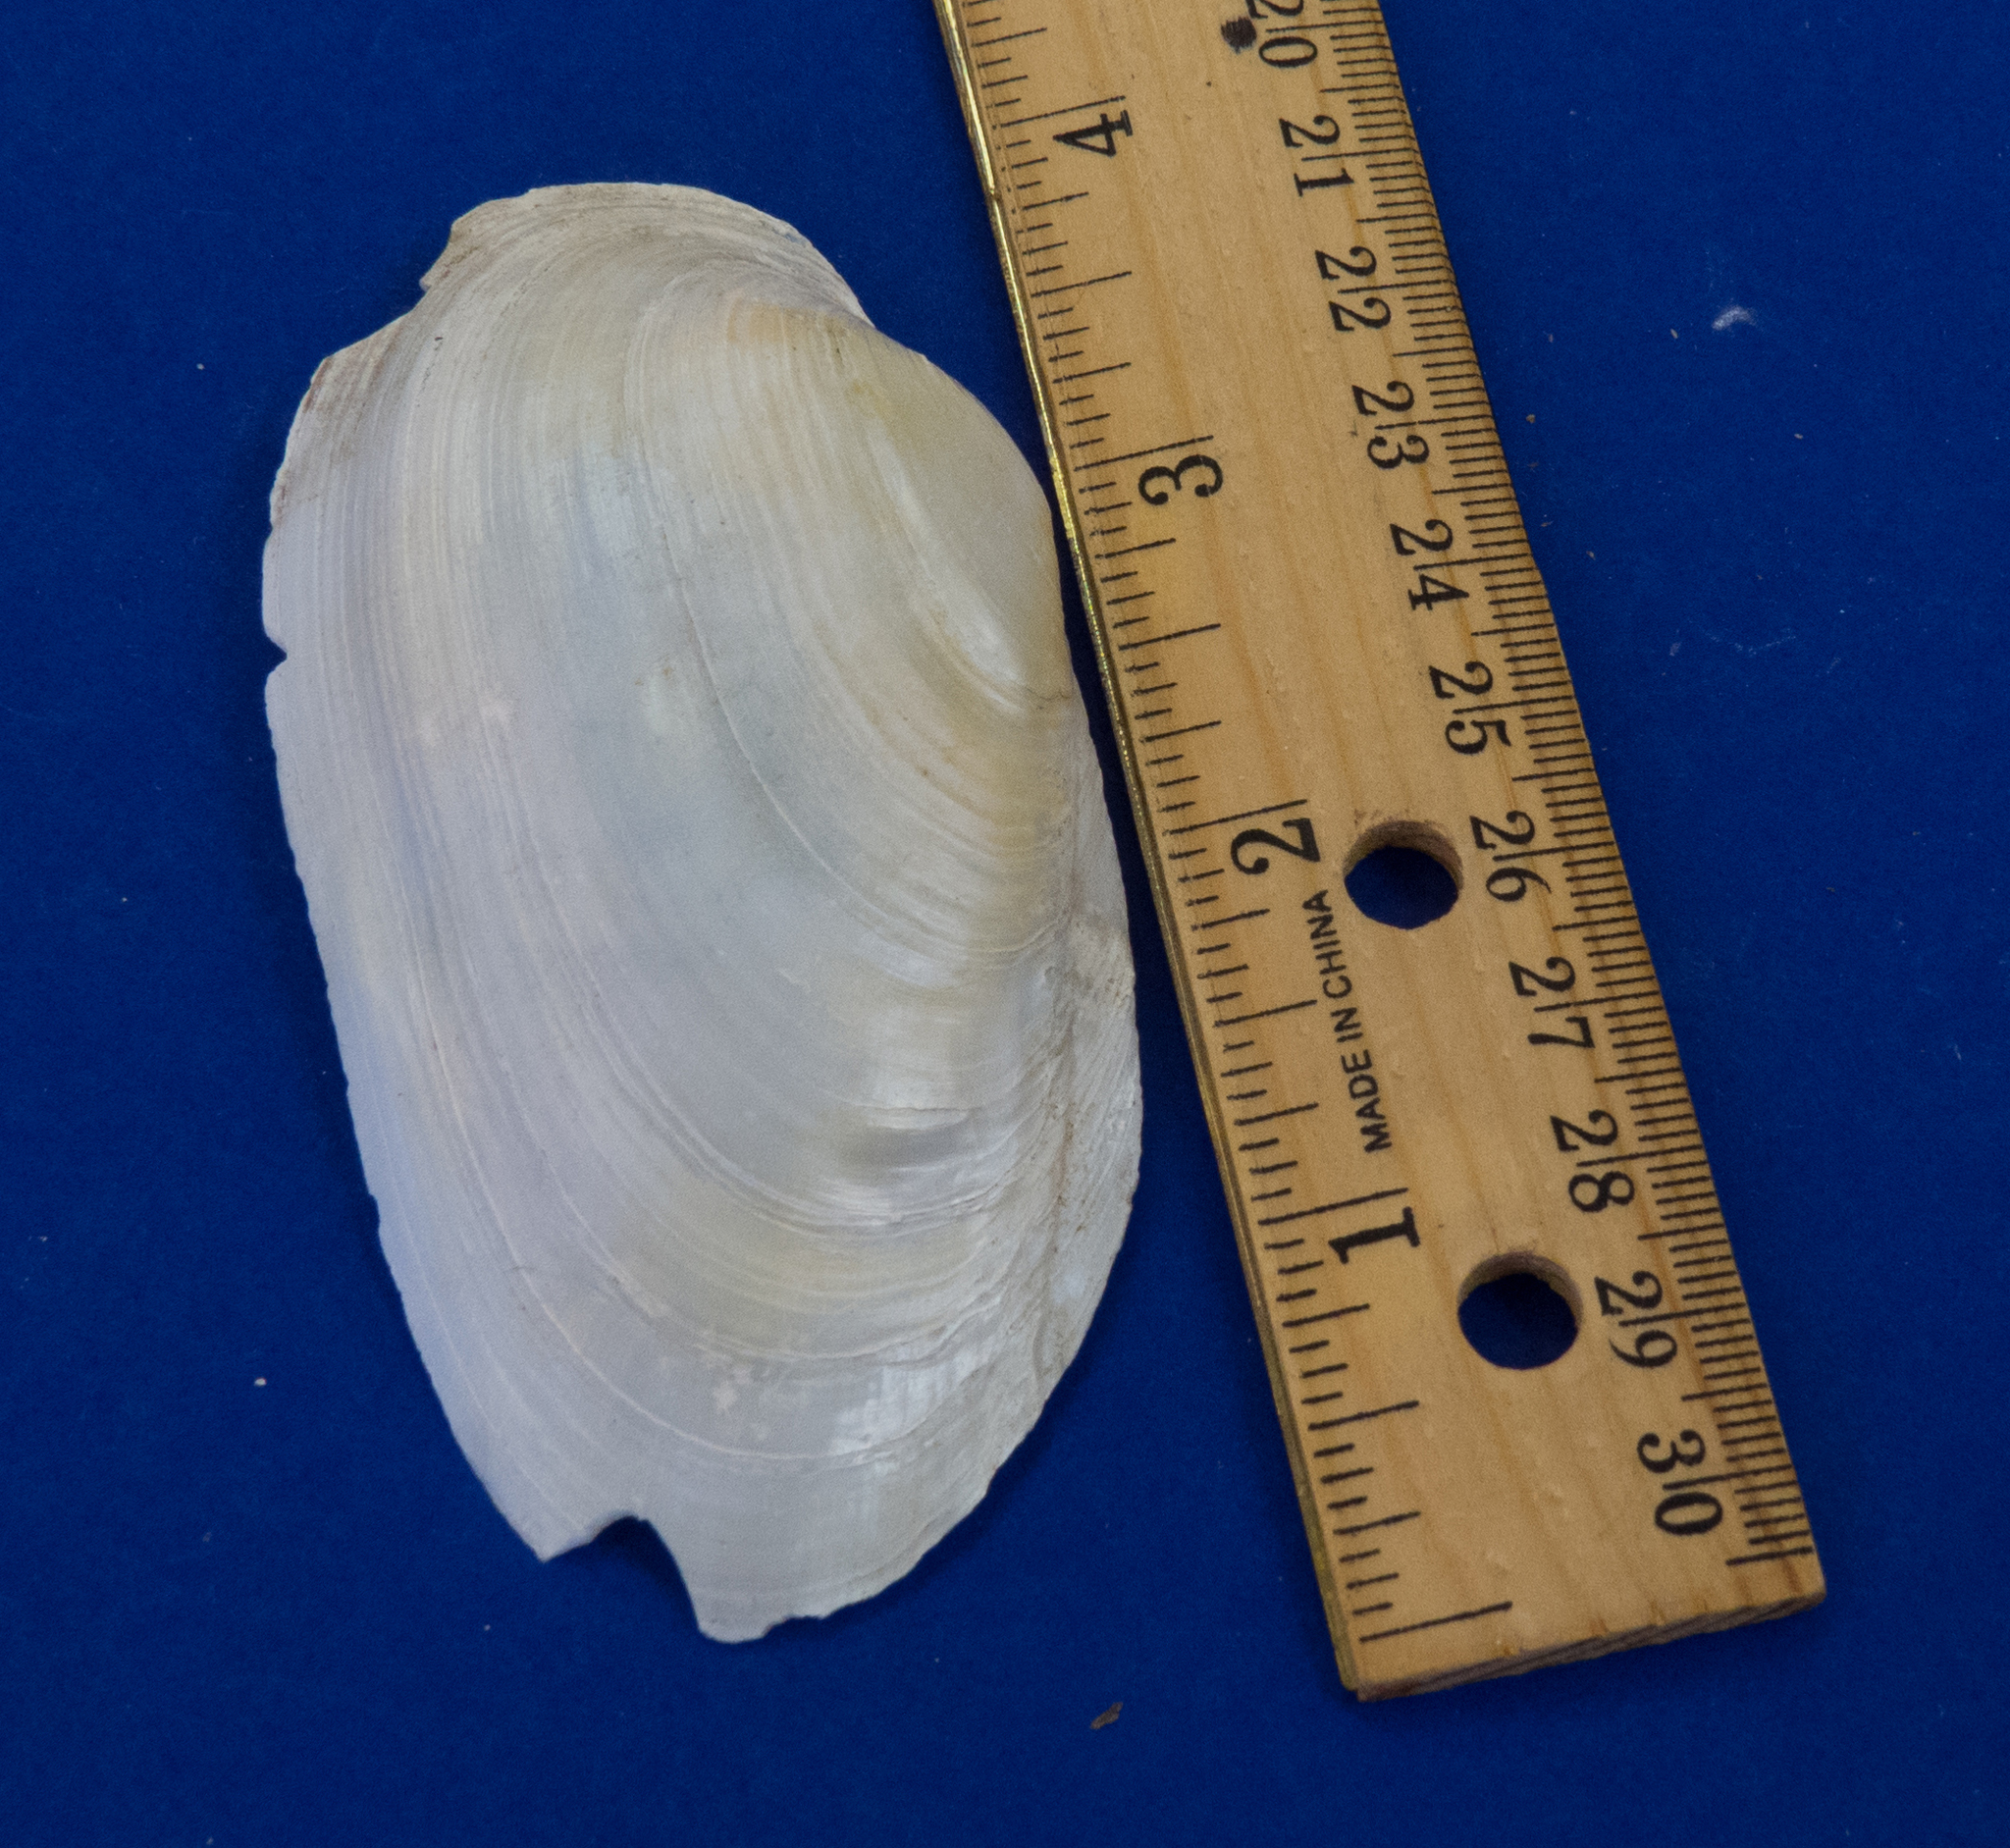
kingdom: Animalia
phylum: Mollusca
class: Bivalvia
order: Unionida
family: Unionidae
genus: Uniomerus
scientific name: Uniomerus tetralasmus
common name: Pondhorn
